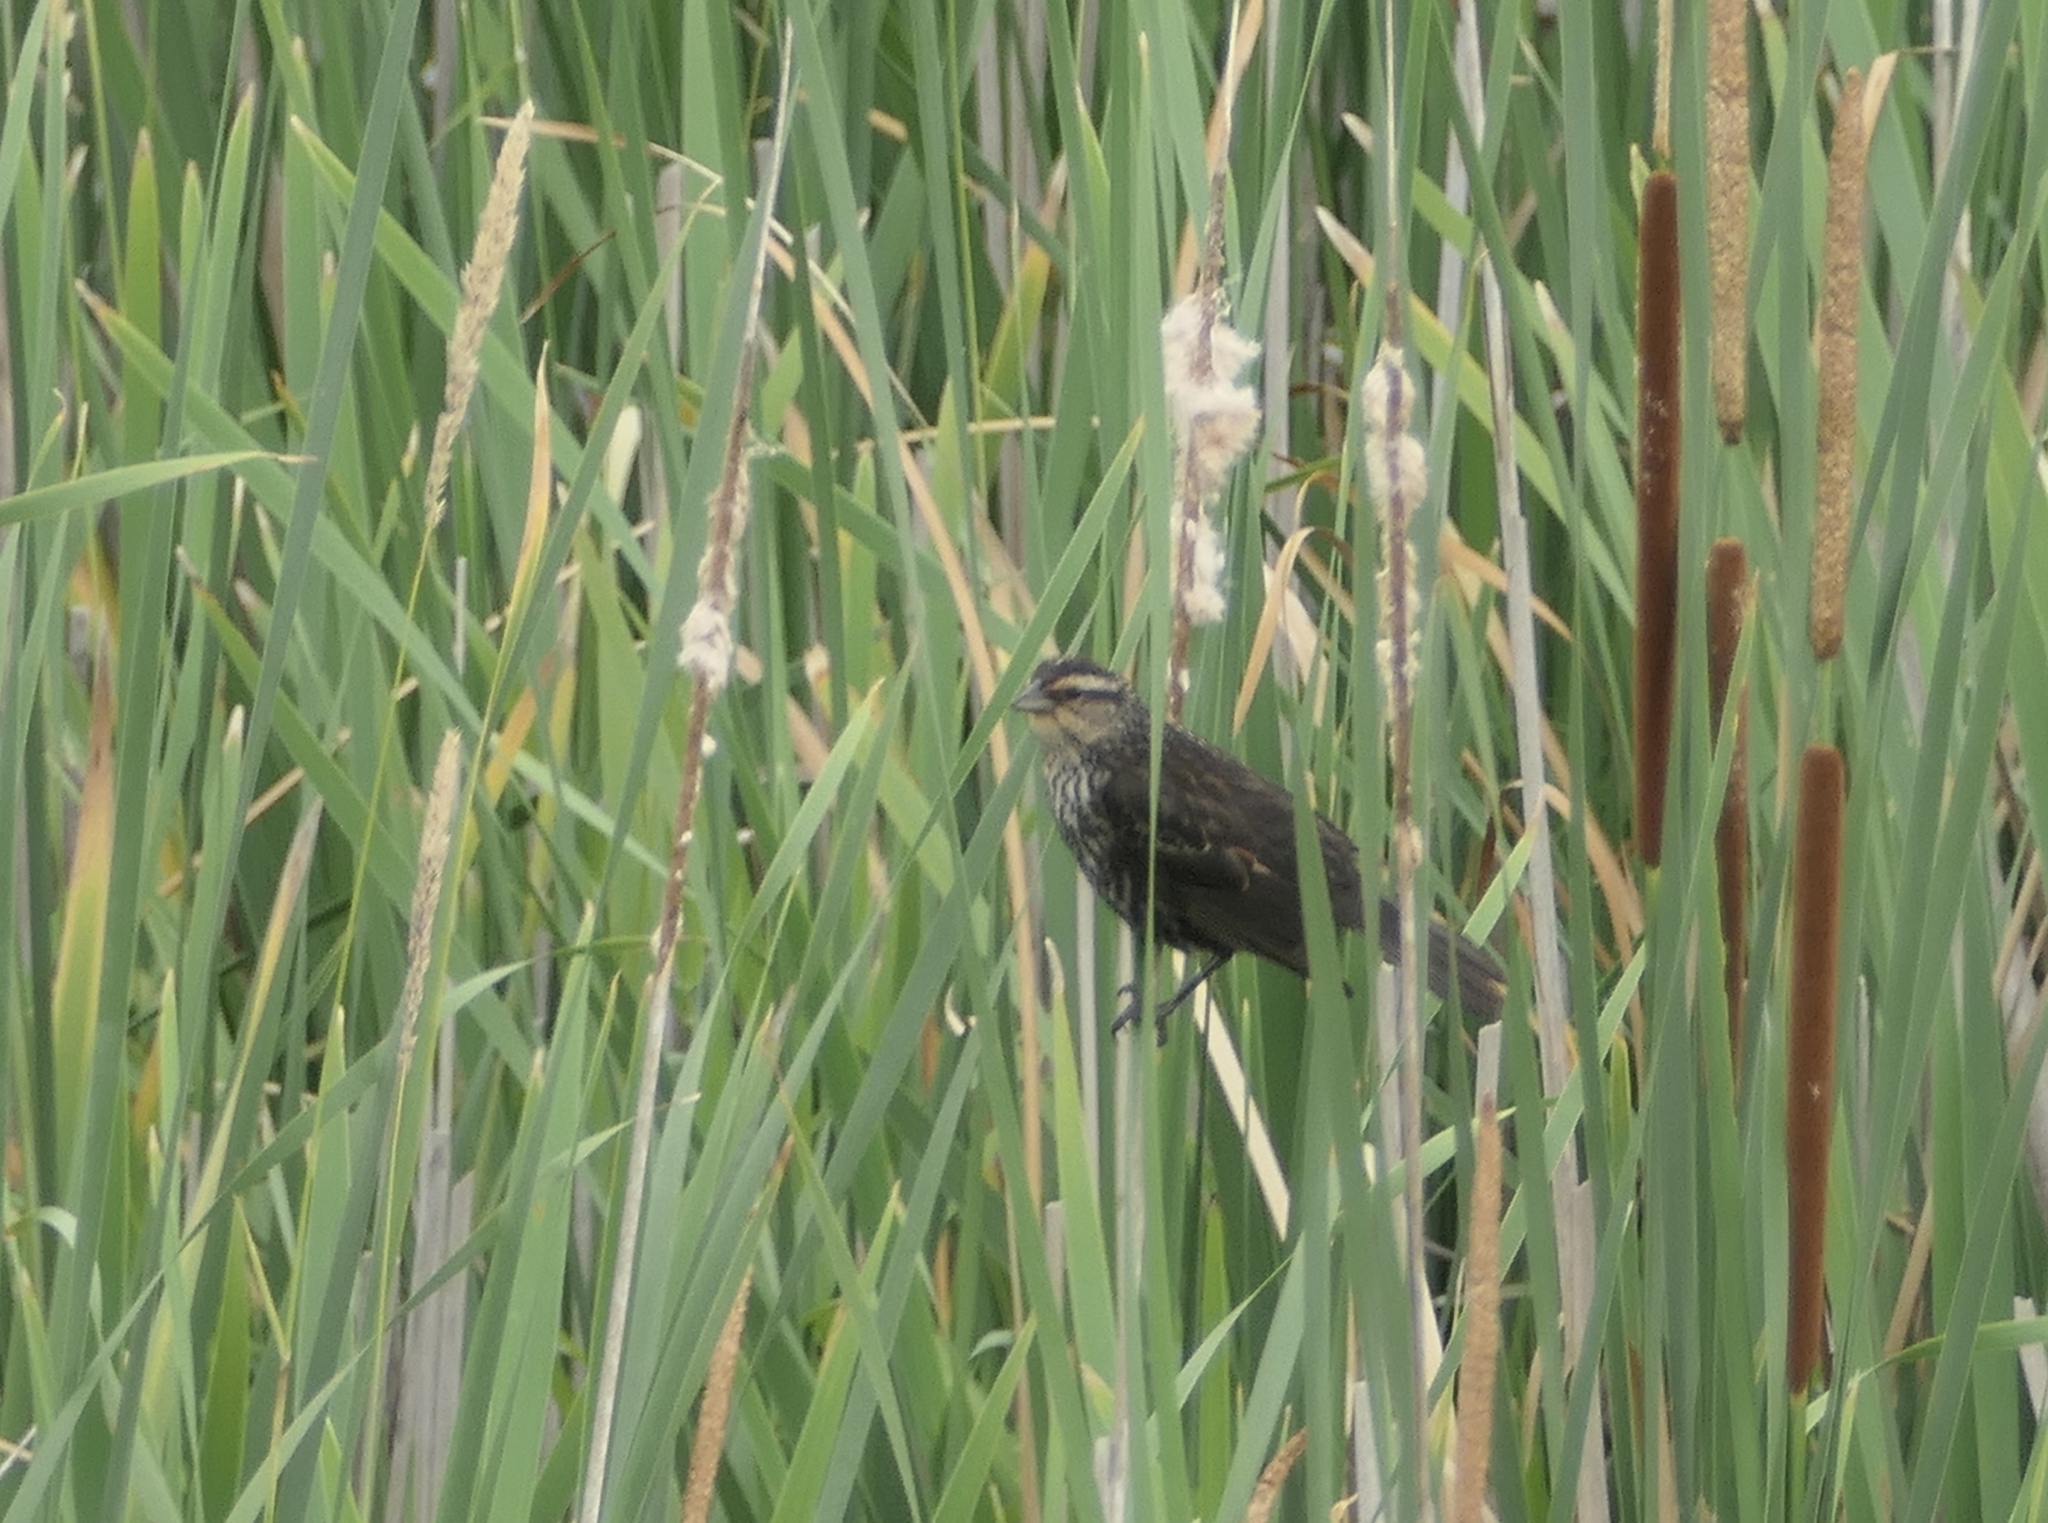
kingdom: Animalia
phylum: Chordata
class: Aves
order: Passeriformes
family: Icteridae
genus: Agelaius
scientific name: Agelaius phoeniceus
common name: Red-winged blackbird
